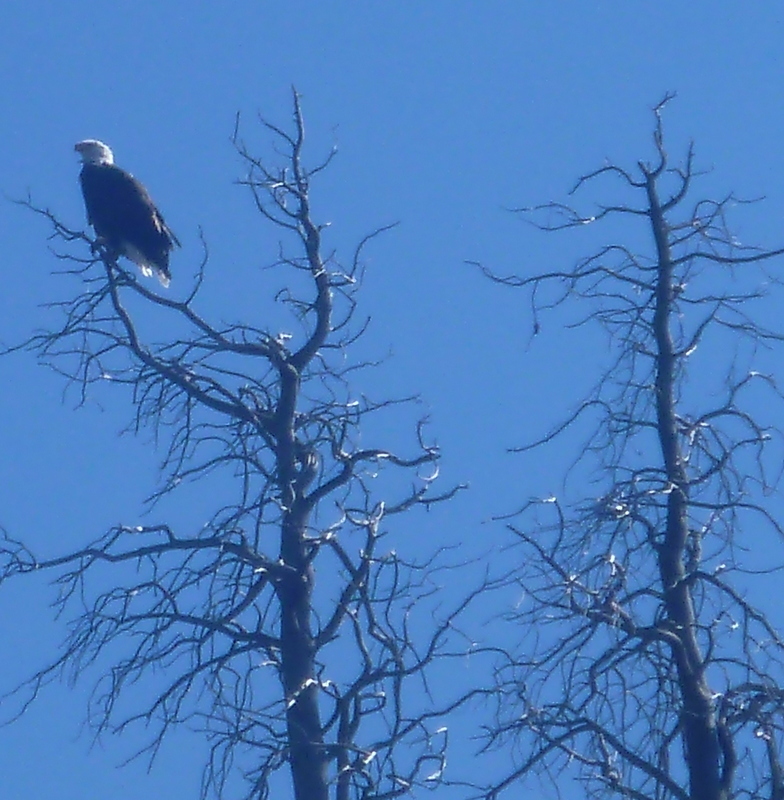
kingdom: Animalia
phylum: Chordata
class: Aves
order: Accipitriformes
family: Accipitridae
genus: Haliaeetus
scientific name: Haliaeetus leucocephalus
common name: Bald eagle
